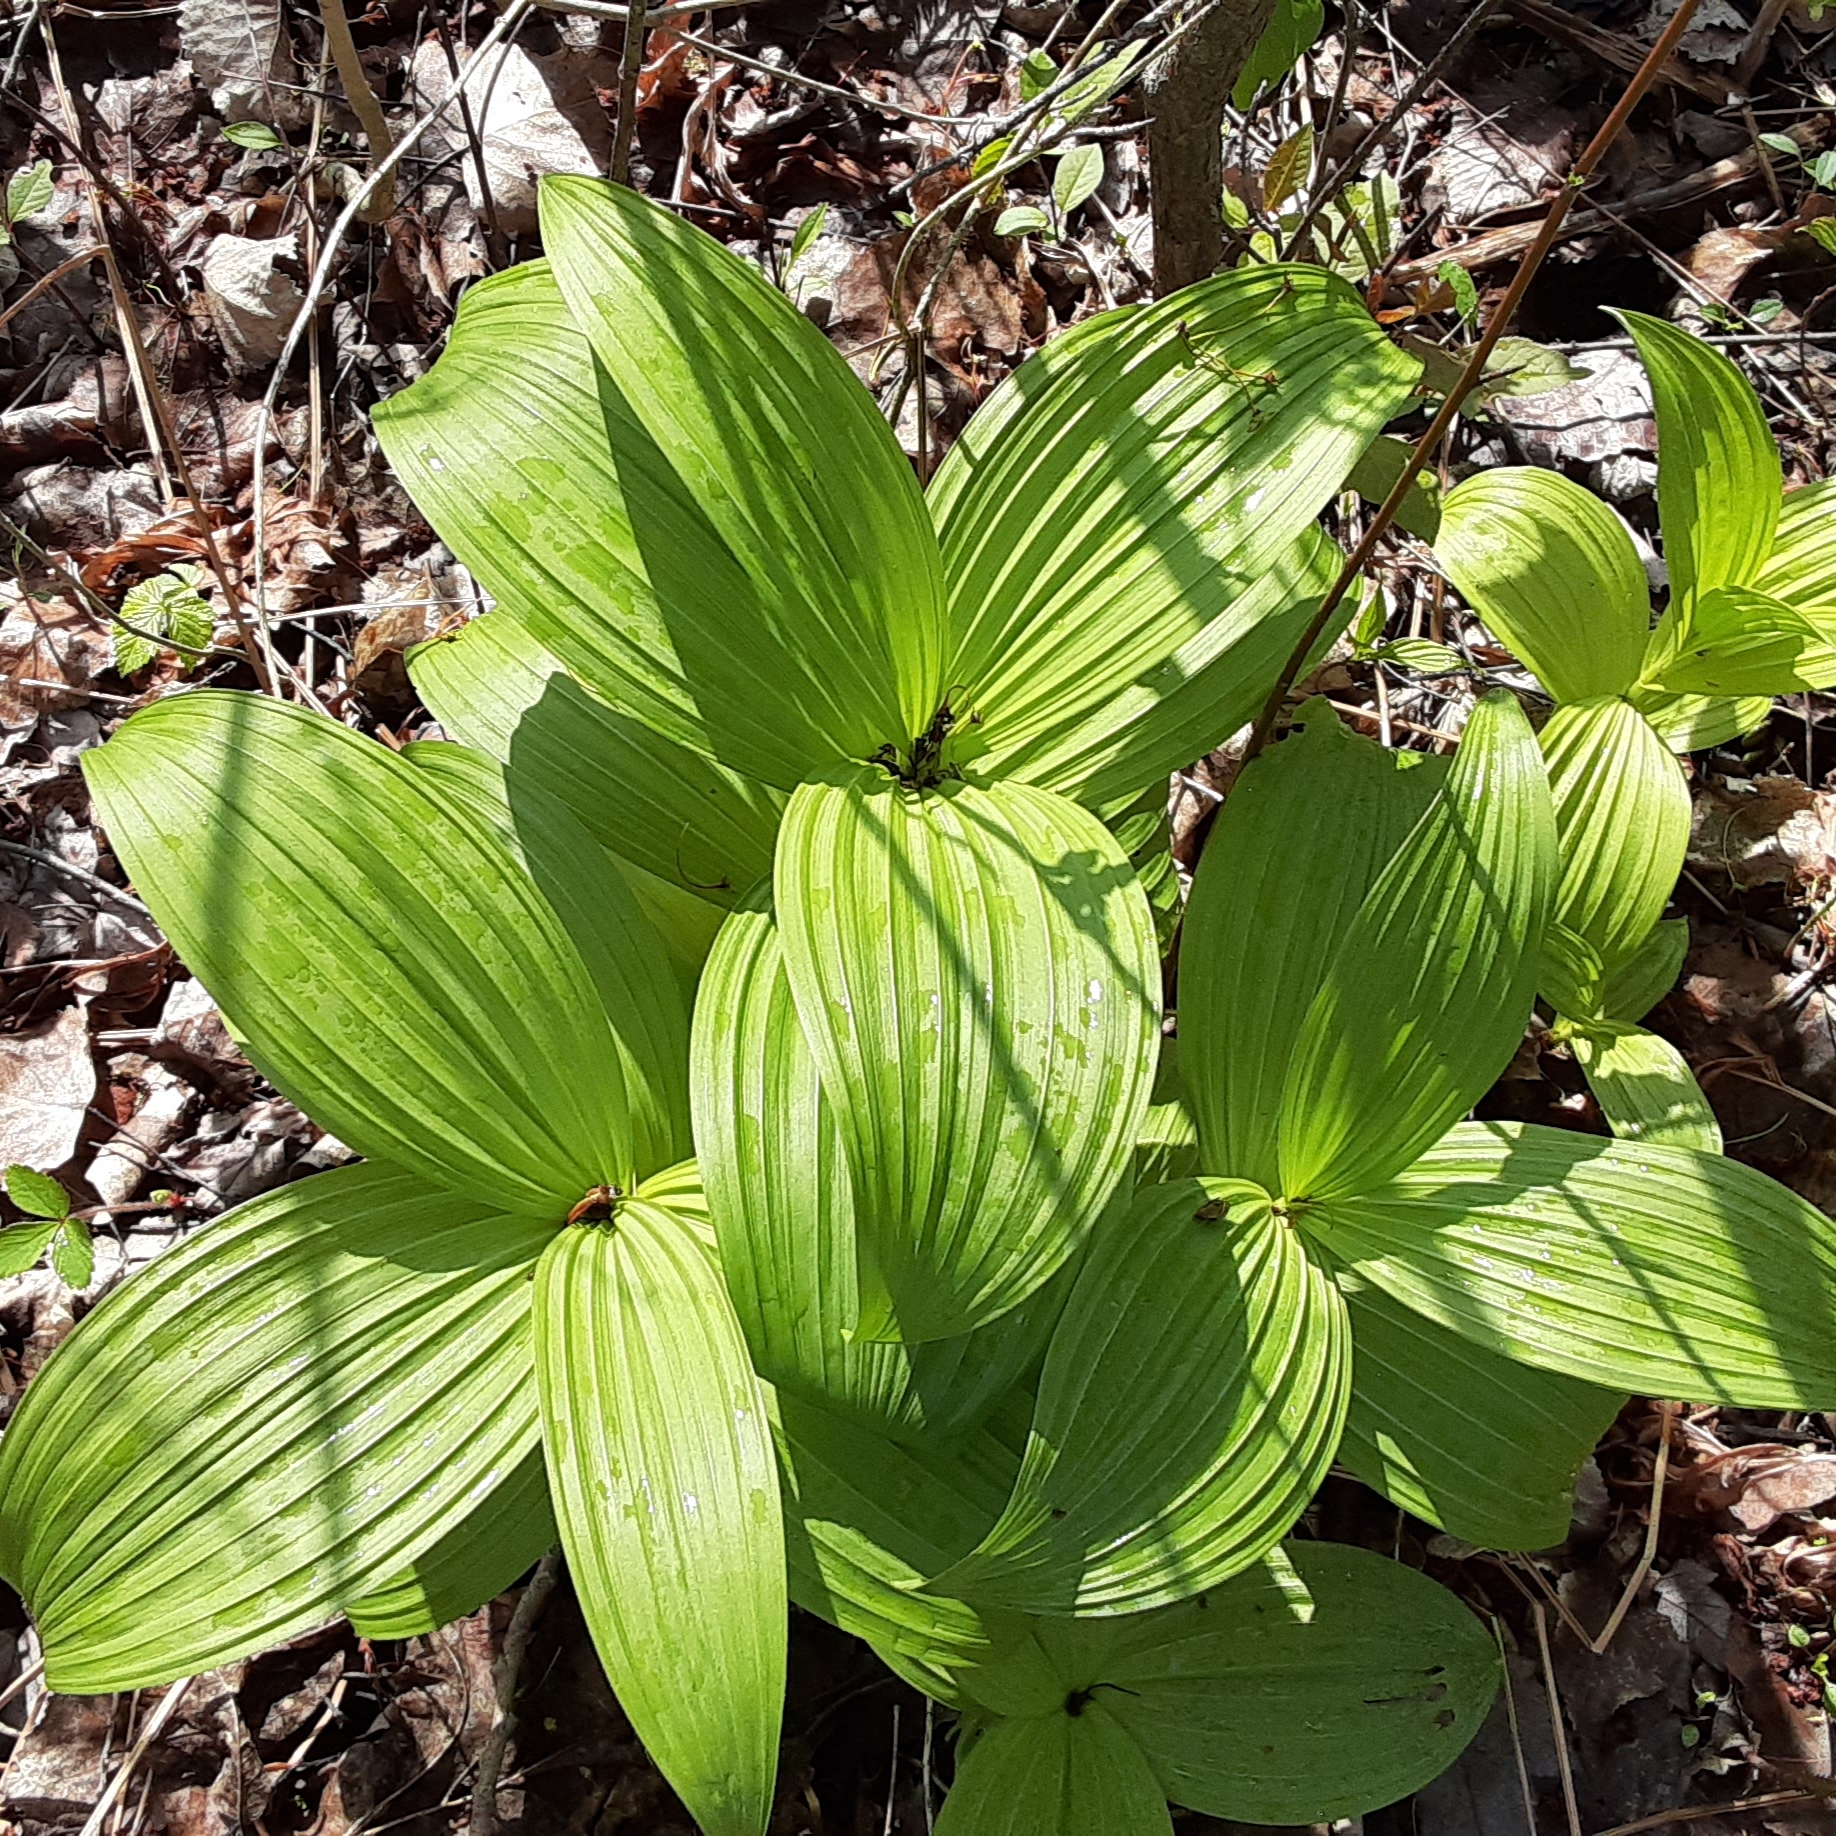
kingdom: Plantae
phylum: Tracheophyta
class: Liliopsida
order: Liliales
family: Melanthiaceae
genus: Veratrum
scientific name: Veratrum viride
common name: American false hellebore
